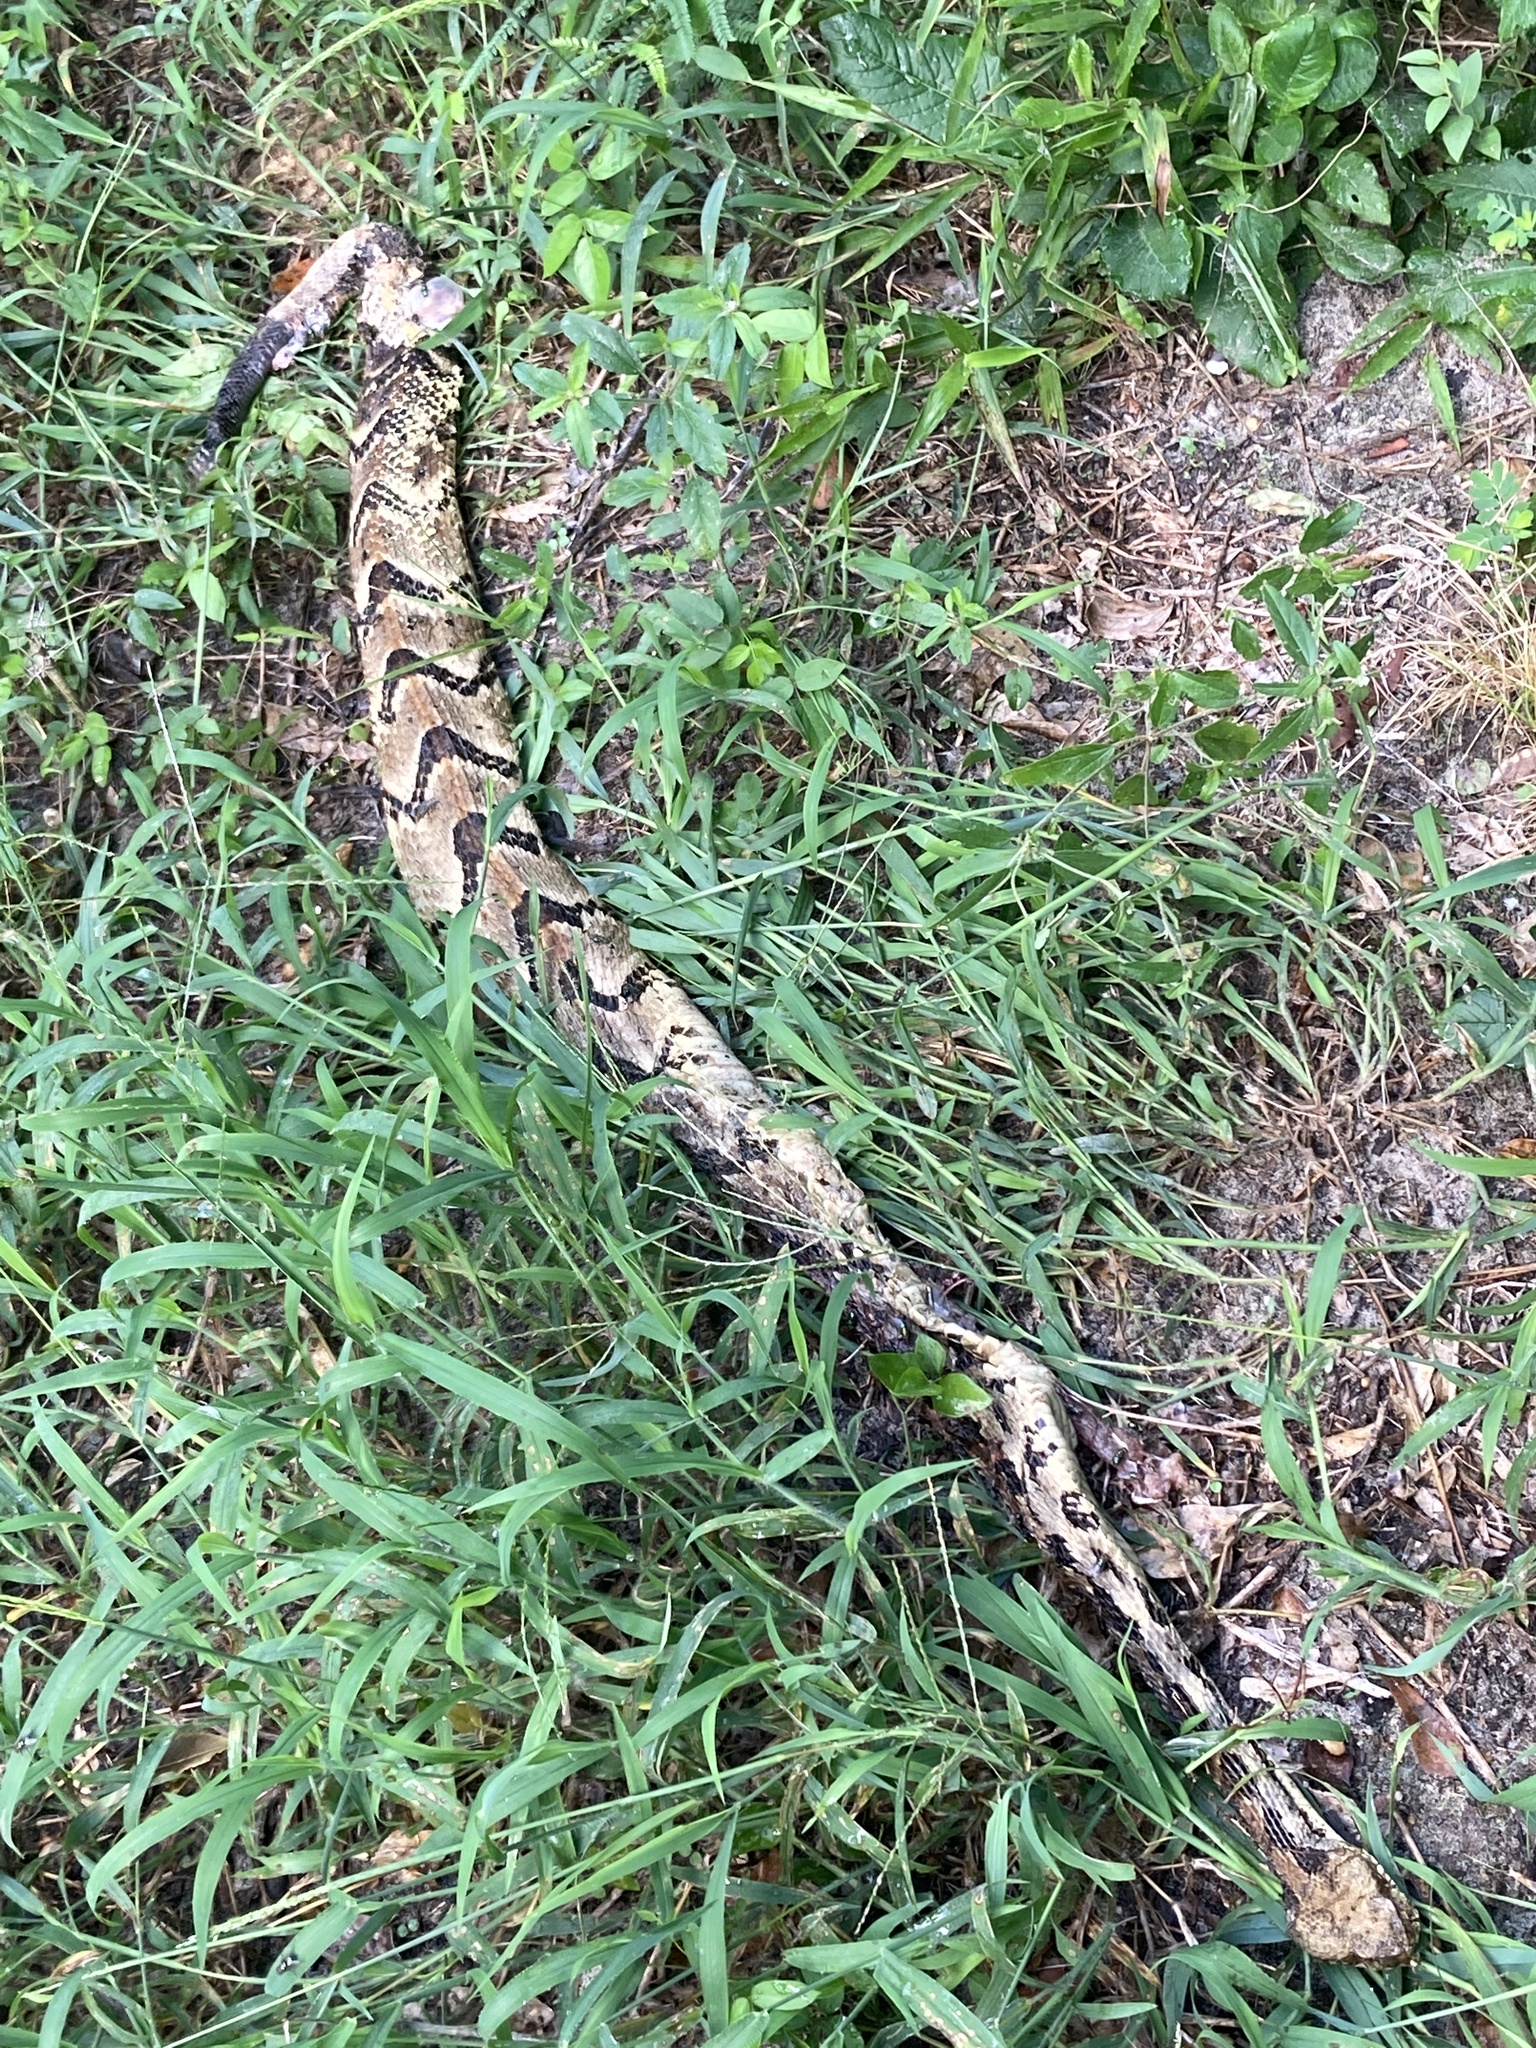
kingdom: Animalia
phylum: Chordata
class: Squamata
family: Viperidae
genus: Crotalus
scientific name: Crotalus horridus
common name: Timber rattlesnake
